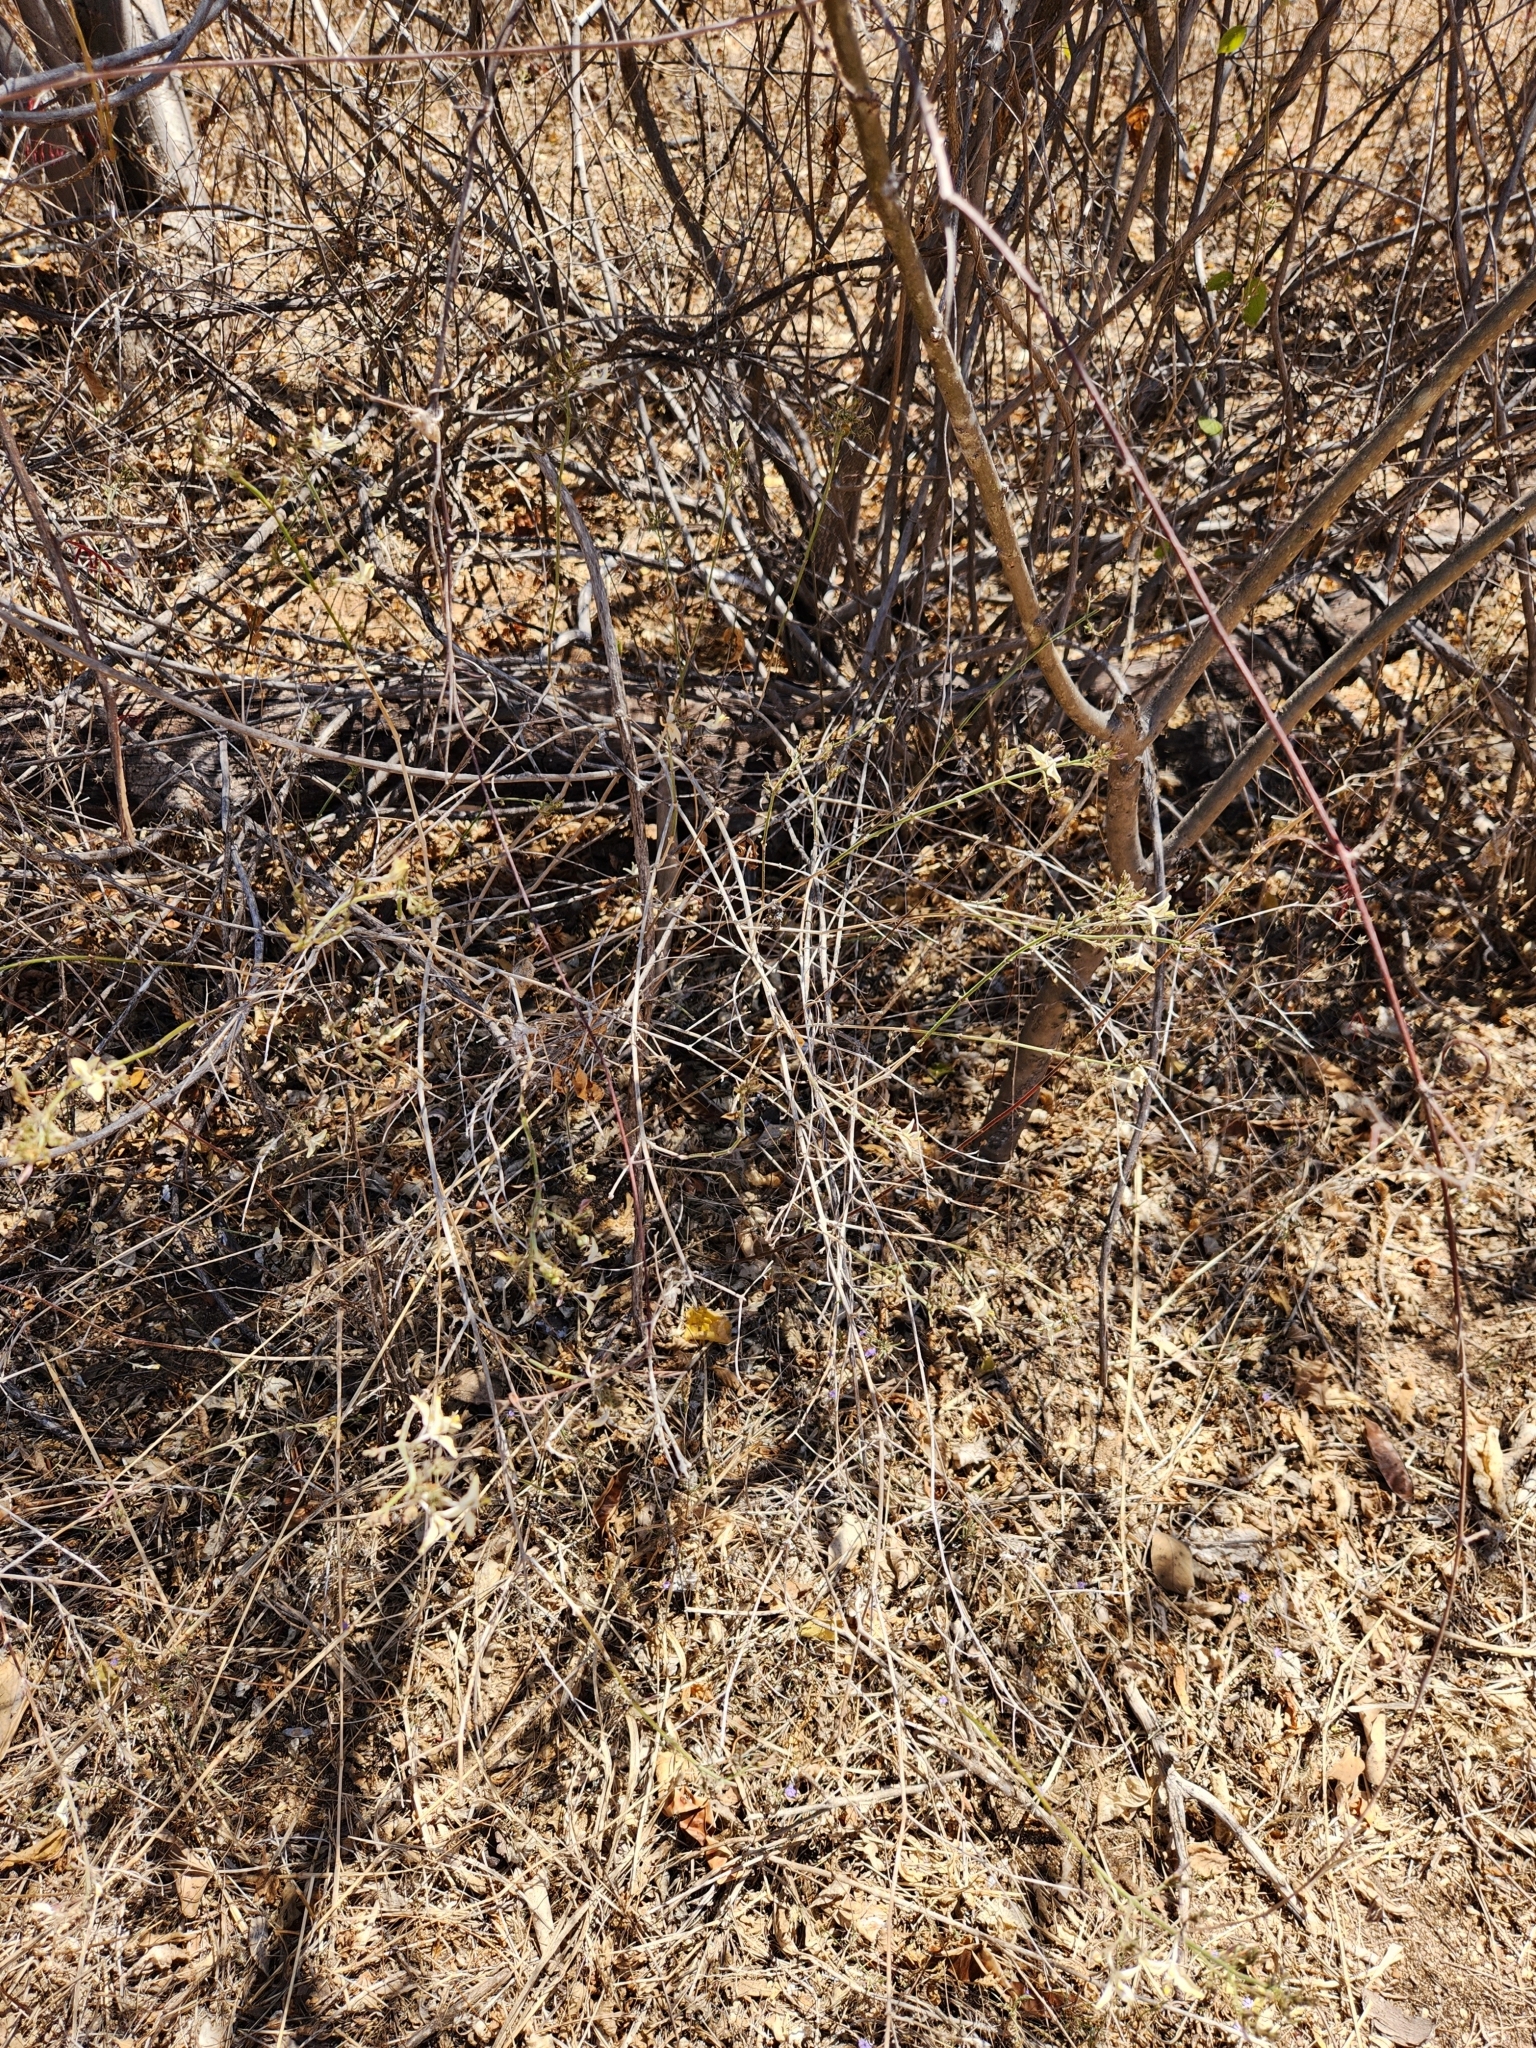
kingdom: Plantae
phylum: Tracheophyta
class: Magnoliopsida
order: Lamiales
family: Acanthaceae
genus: Carlowrightia
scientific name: Carlowrightia arizonica
